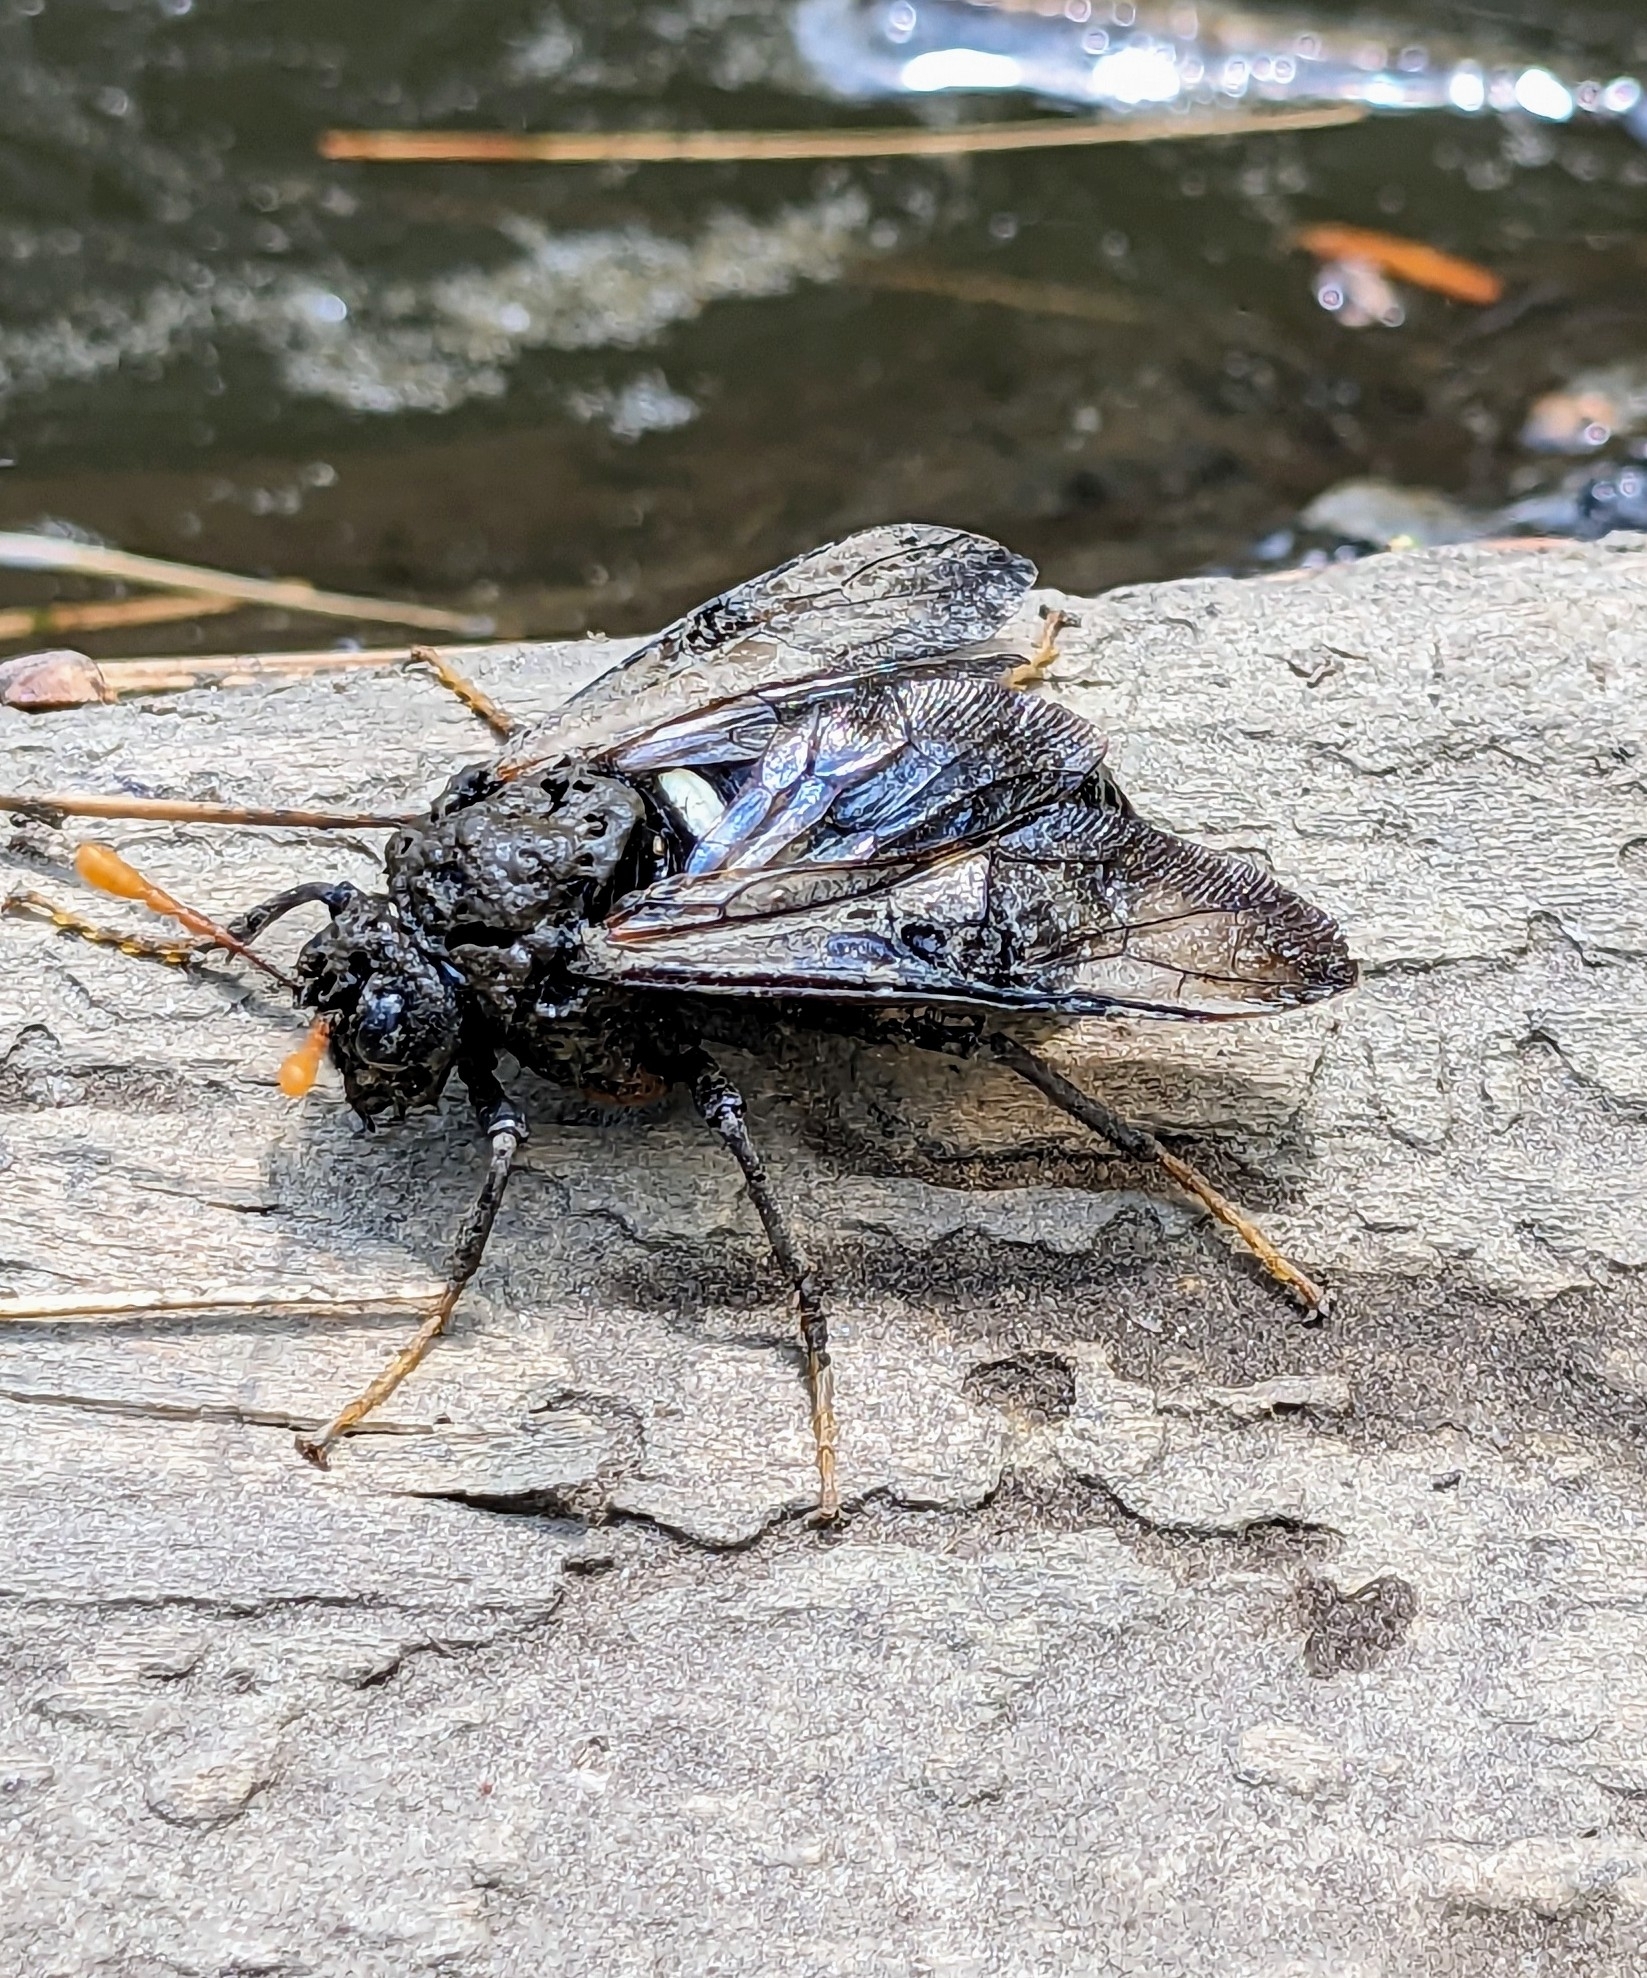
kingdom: Animalia
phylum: Arthropoda
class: Insecta
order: Hymenoptera
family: Cimbicidae
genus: Cimbex
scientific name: Cimbex americana
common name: Elm sawfly
